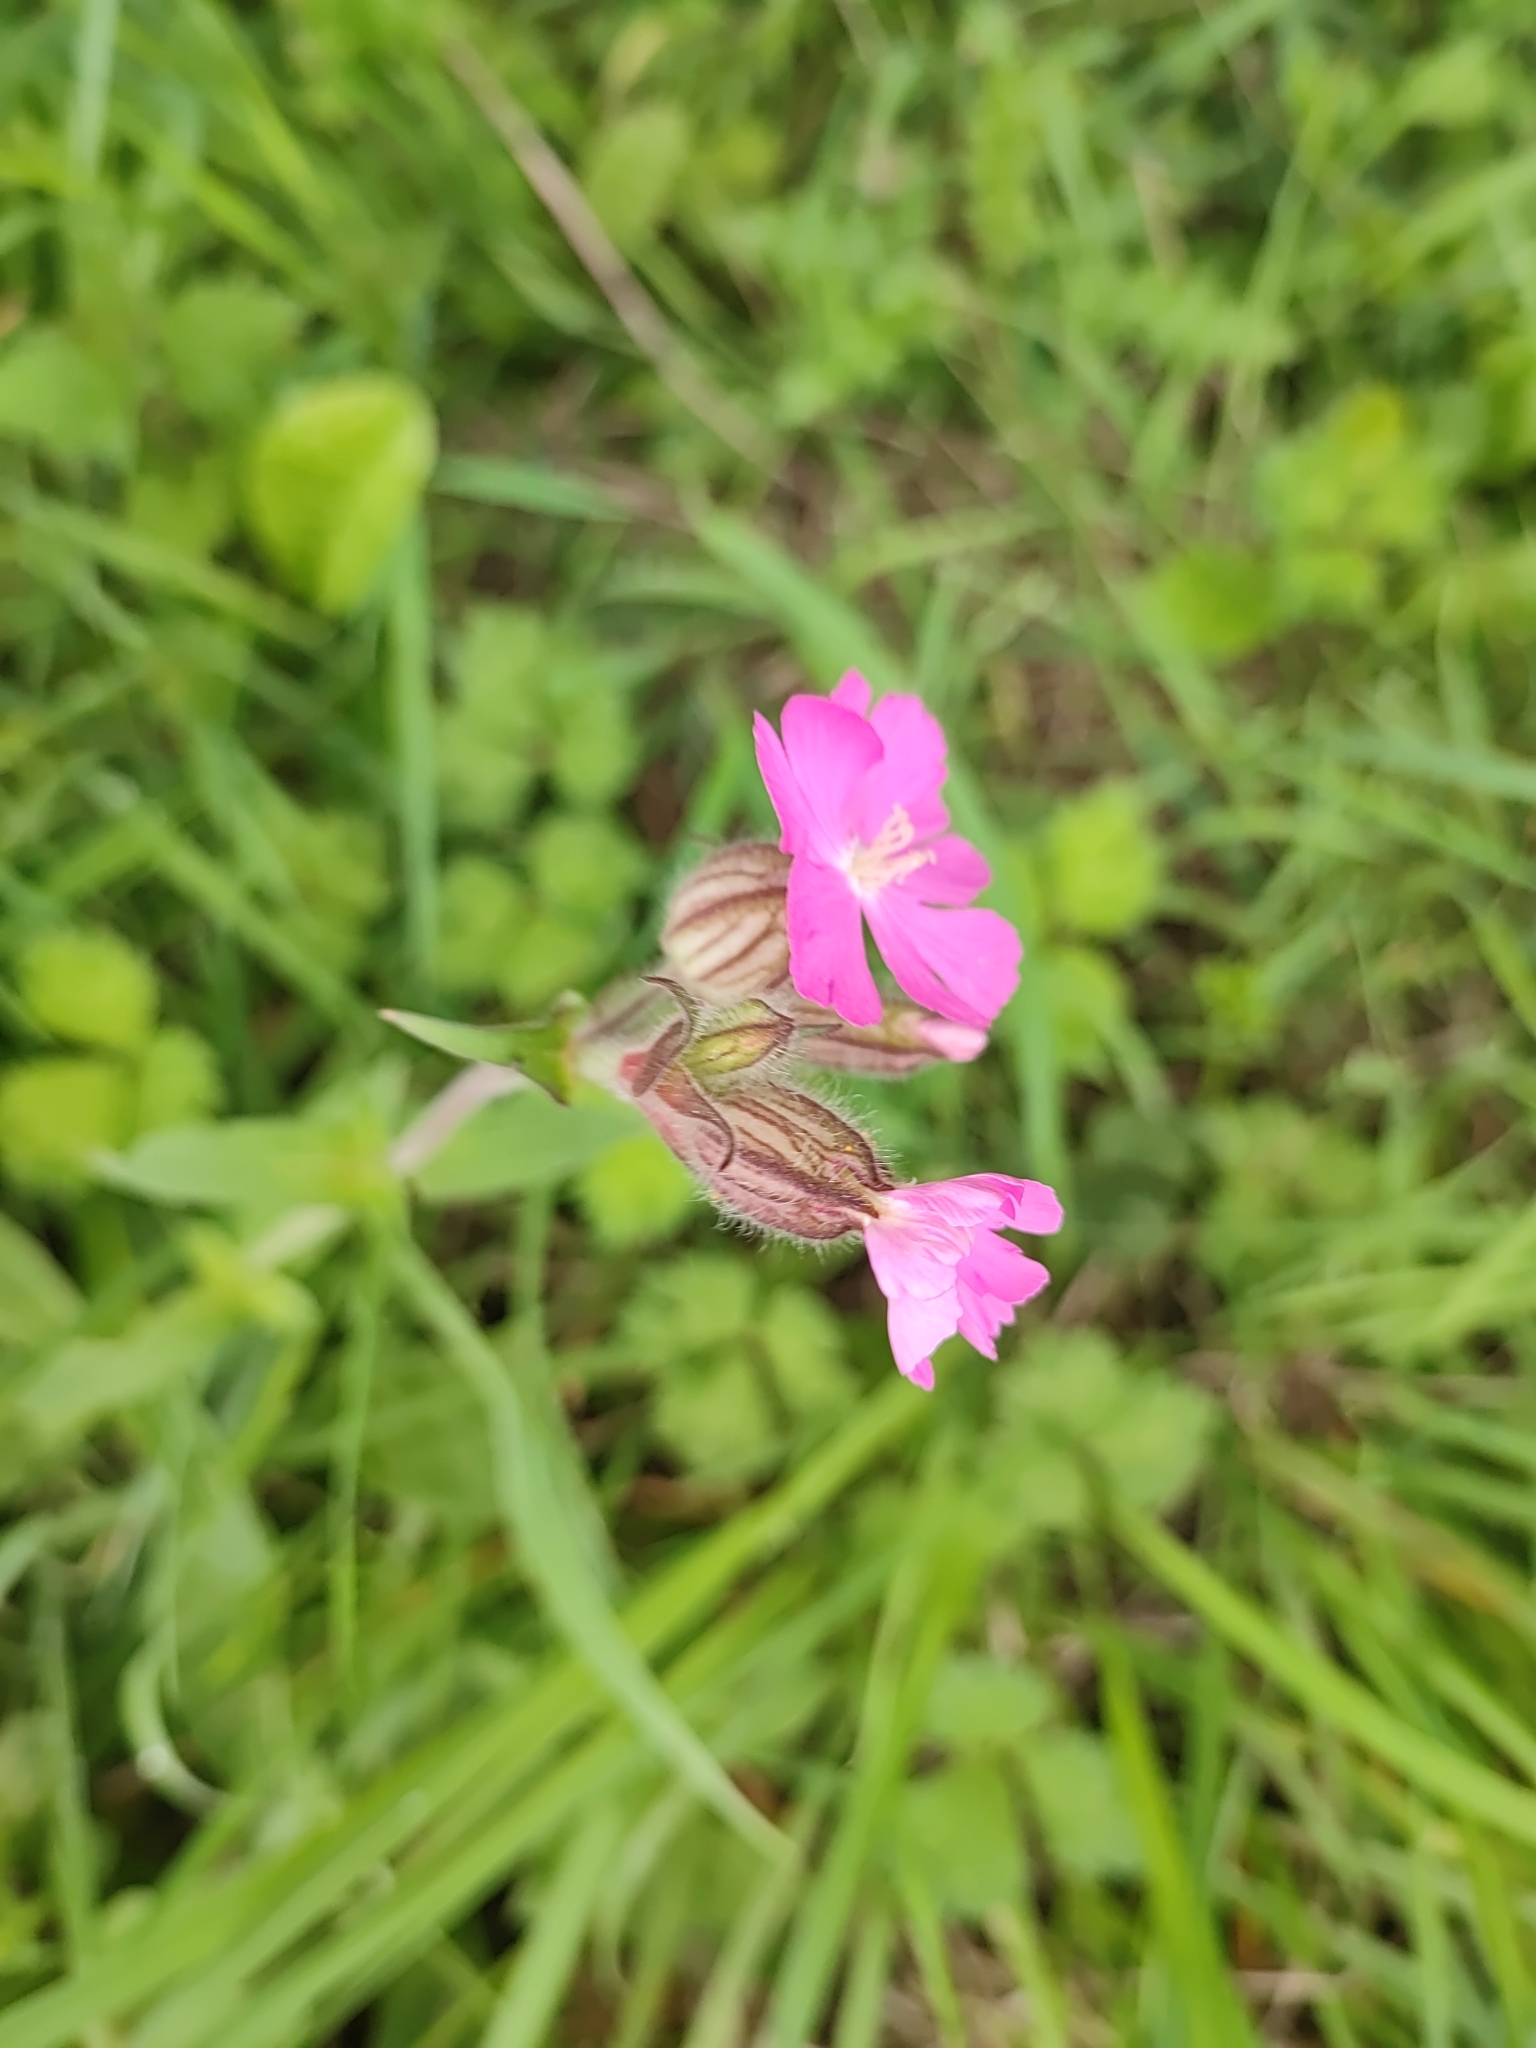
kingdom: Plantae
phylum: Tracheophyta
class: Magnoliopsida
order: Caryophyllales
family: Caryophyllaceae
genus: Silene
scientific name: Silene dioica
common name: Red campion
